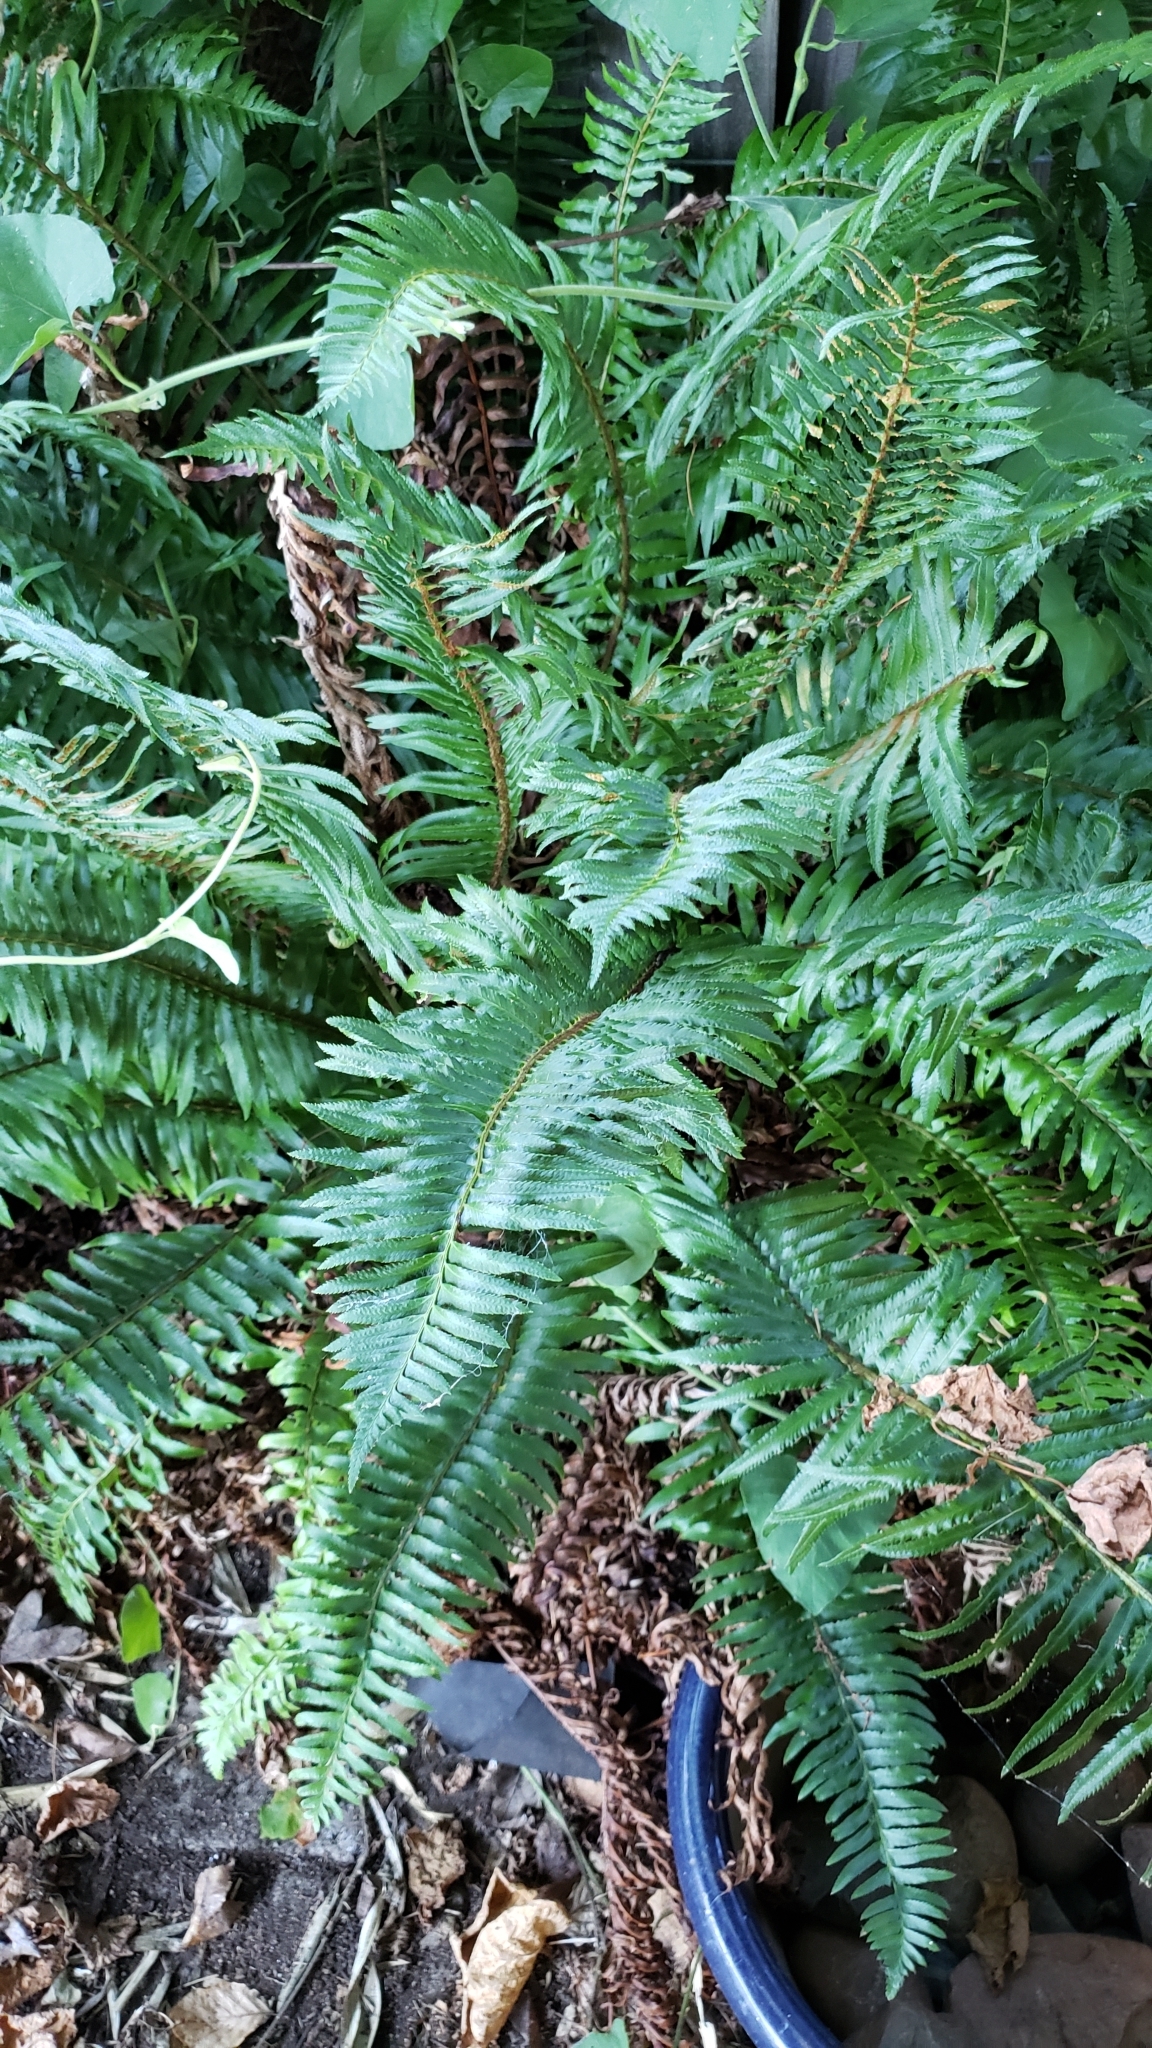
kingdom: Plantae
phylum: Tracheophyta
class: Polypodiopsida
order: Polypodiales
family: Dryopteridaceae
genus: Polystichum
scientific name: Polystichum munitum
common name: Western sword-fern
